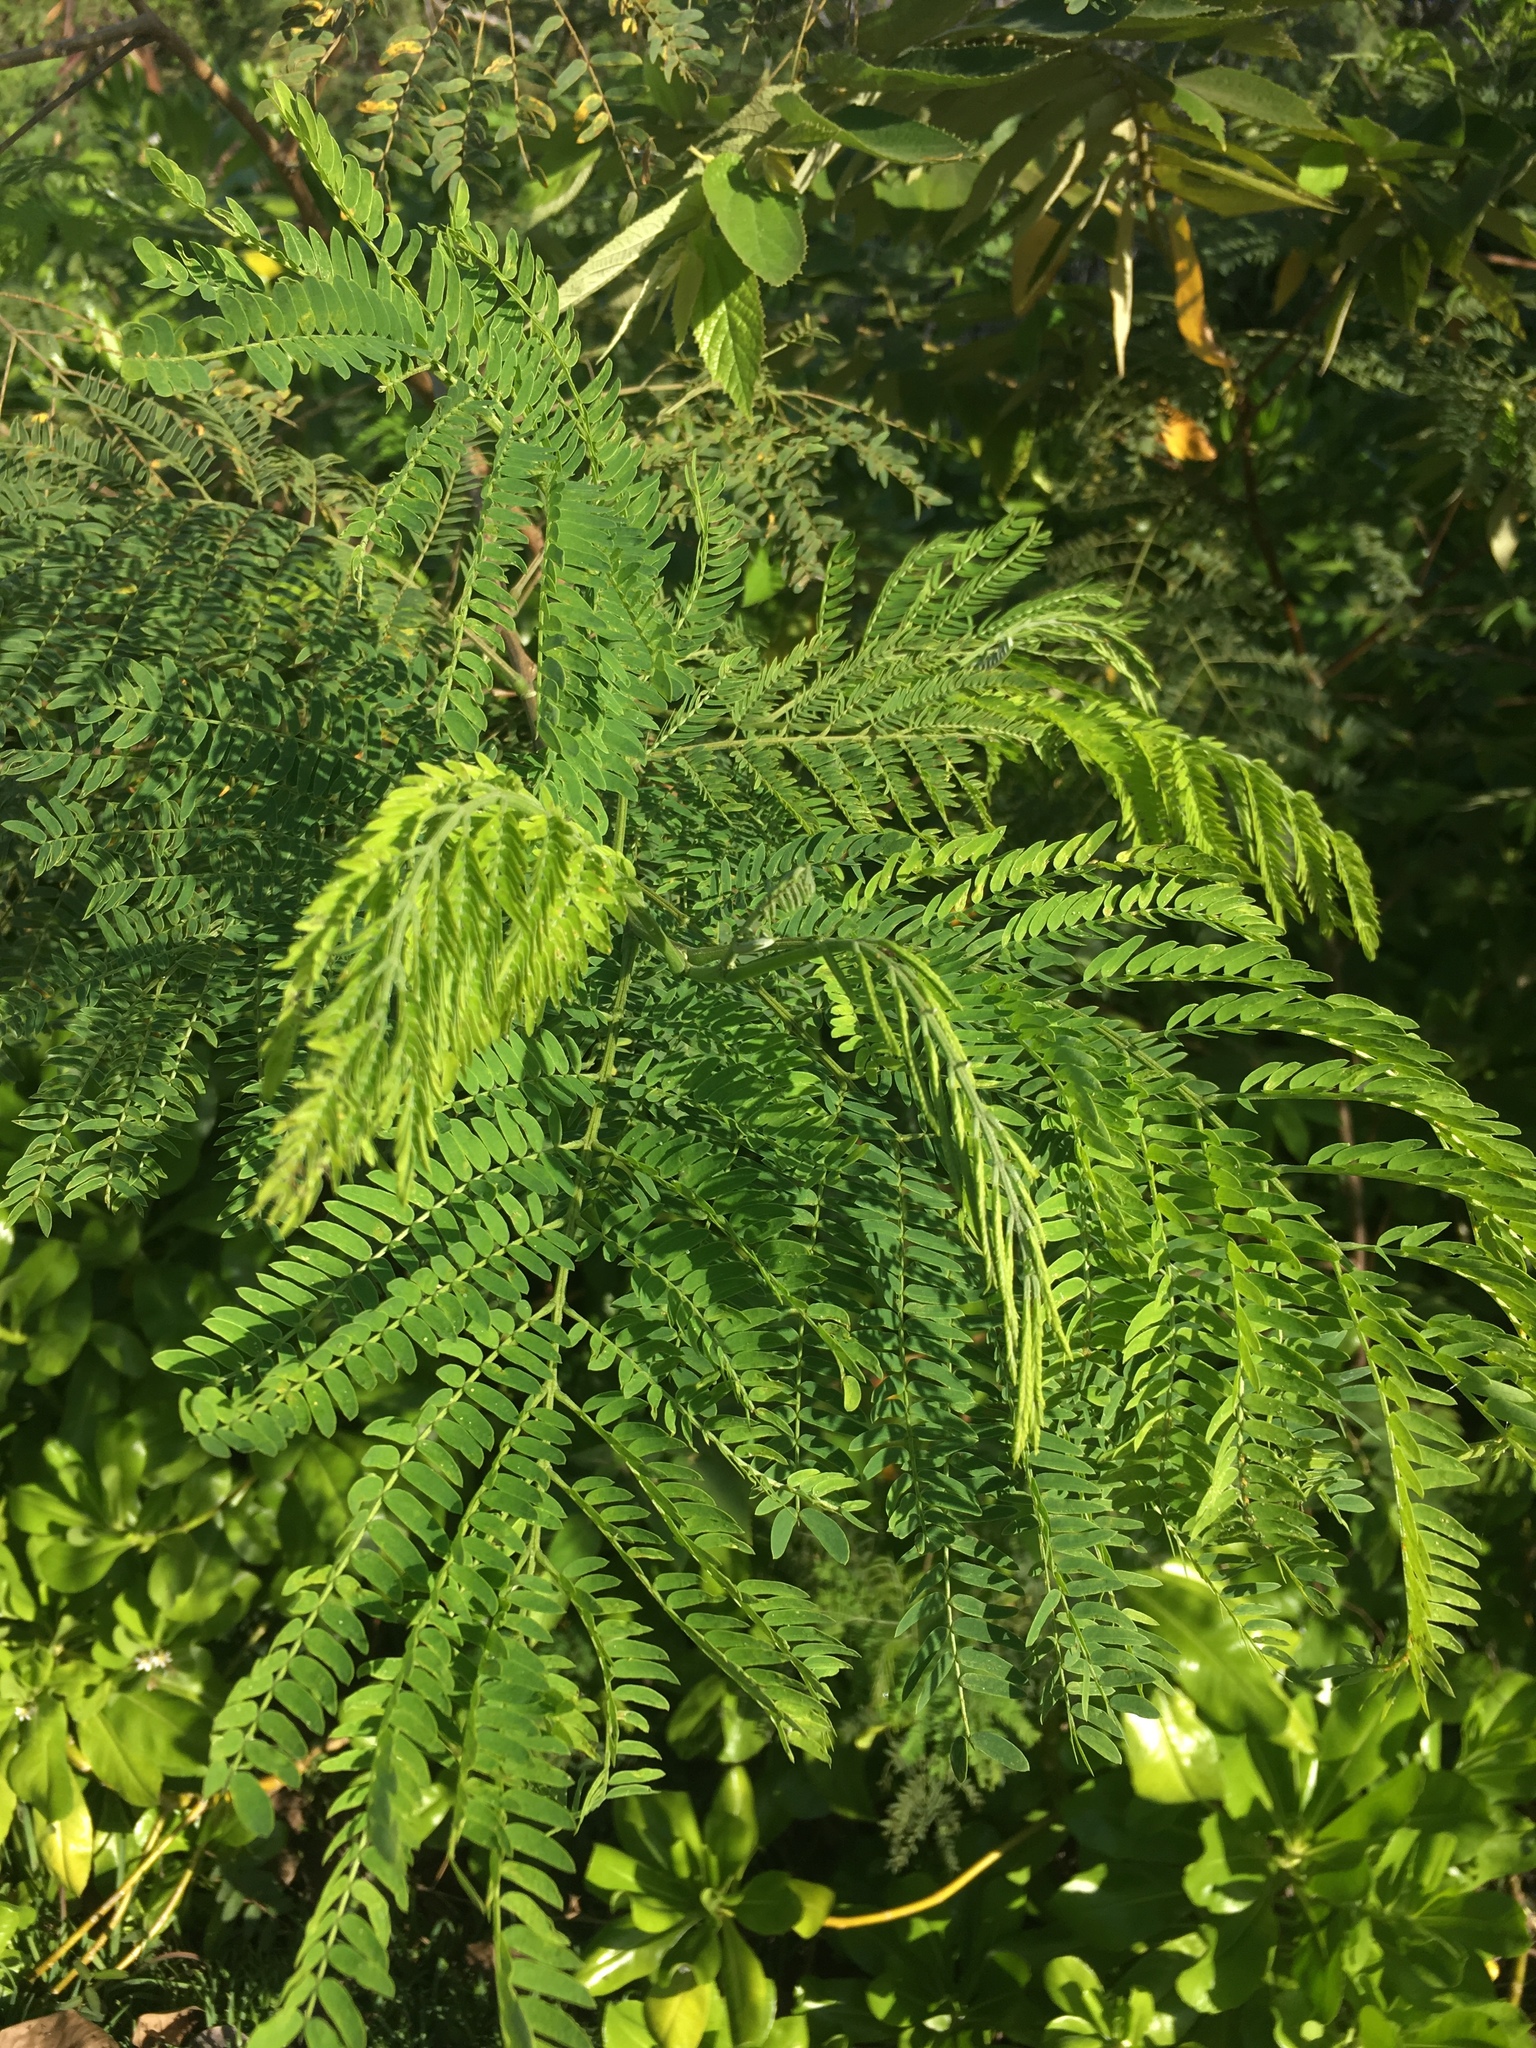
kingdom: Plantae
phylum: Tracheophyta
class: Magnoliopsida
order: Fabales
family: Fabaceae
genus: Leucaena
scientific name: Leucaena leucocephala
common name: White leadtree
